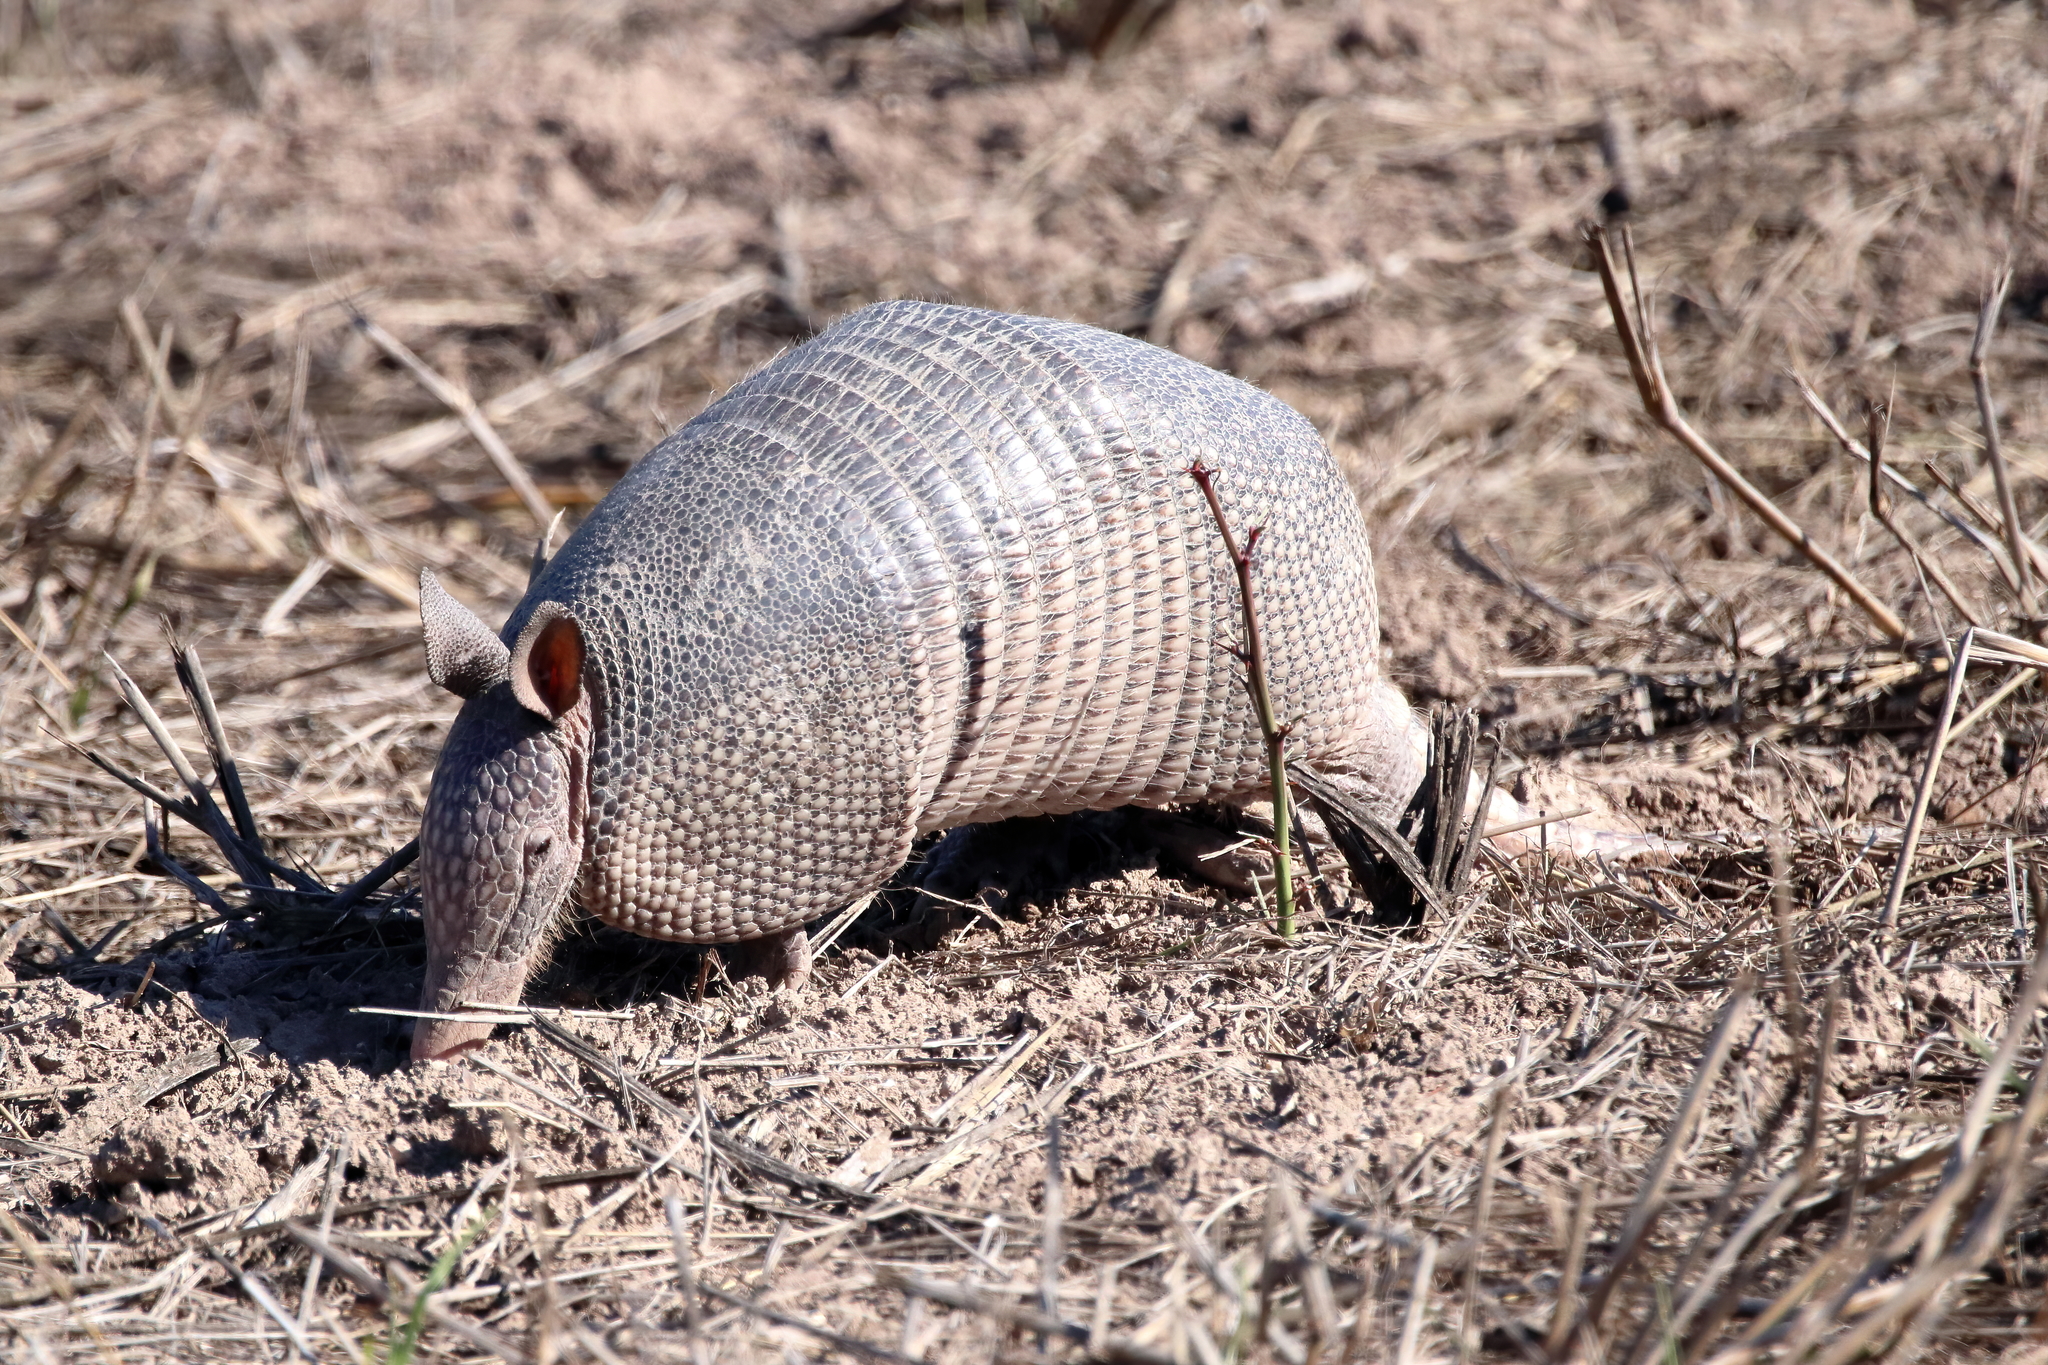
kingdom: Animalia
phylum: Chordata
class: Mammalia
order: Cingulata
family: Dasypodidae
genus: Dasypus
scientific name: Dasypus novemcinctus
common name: Nine-banded armadillo
